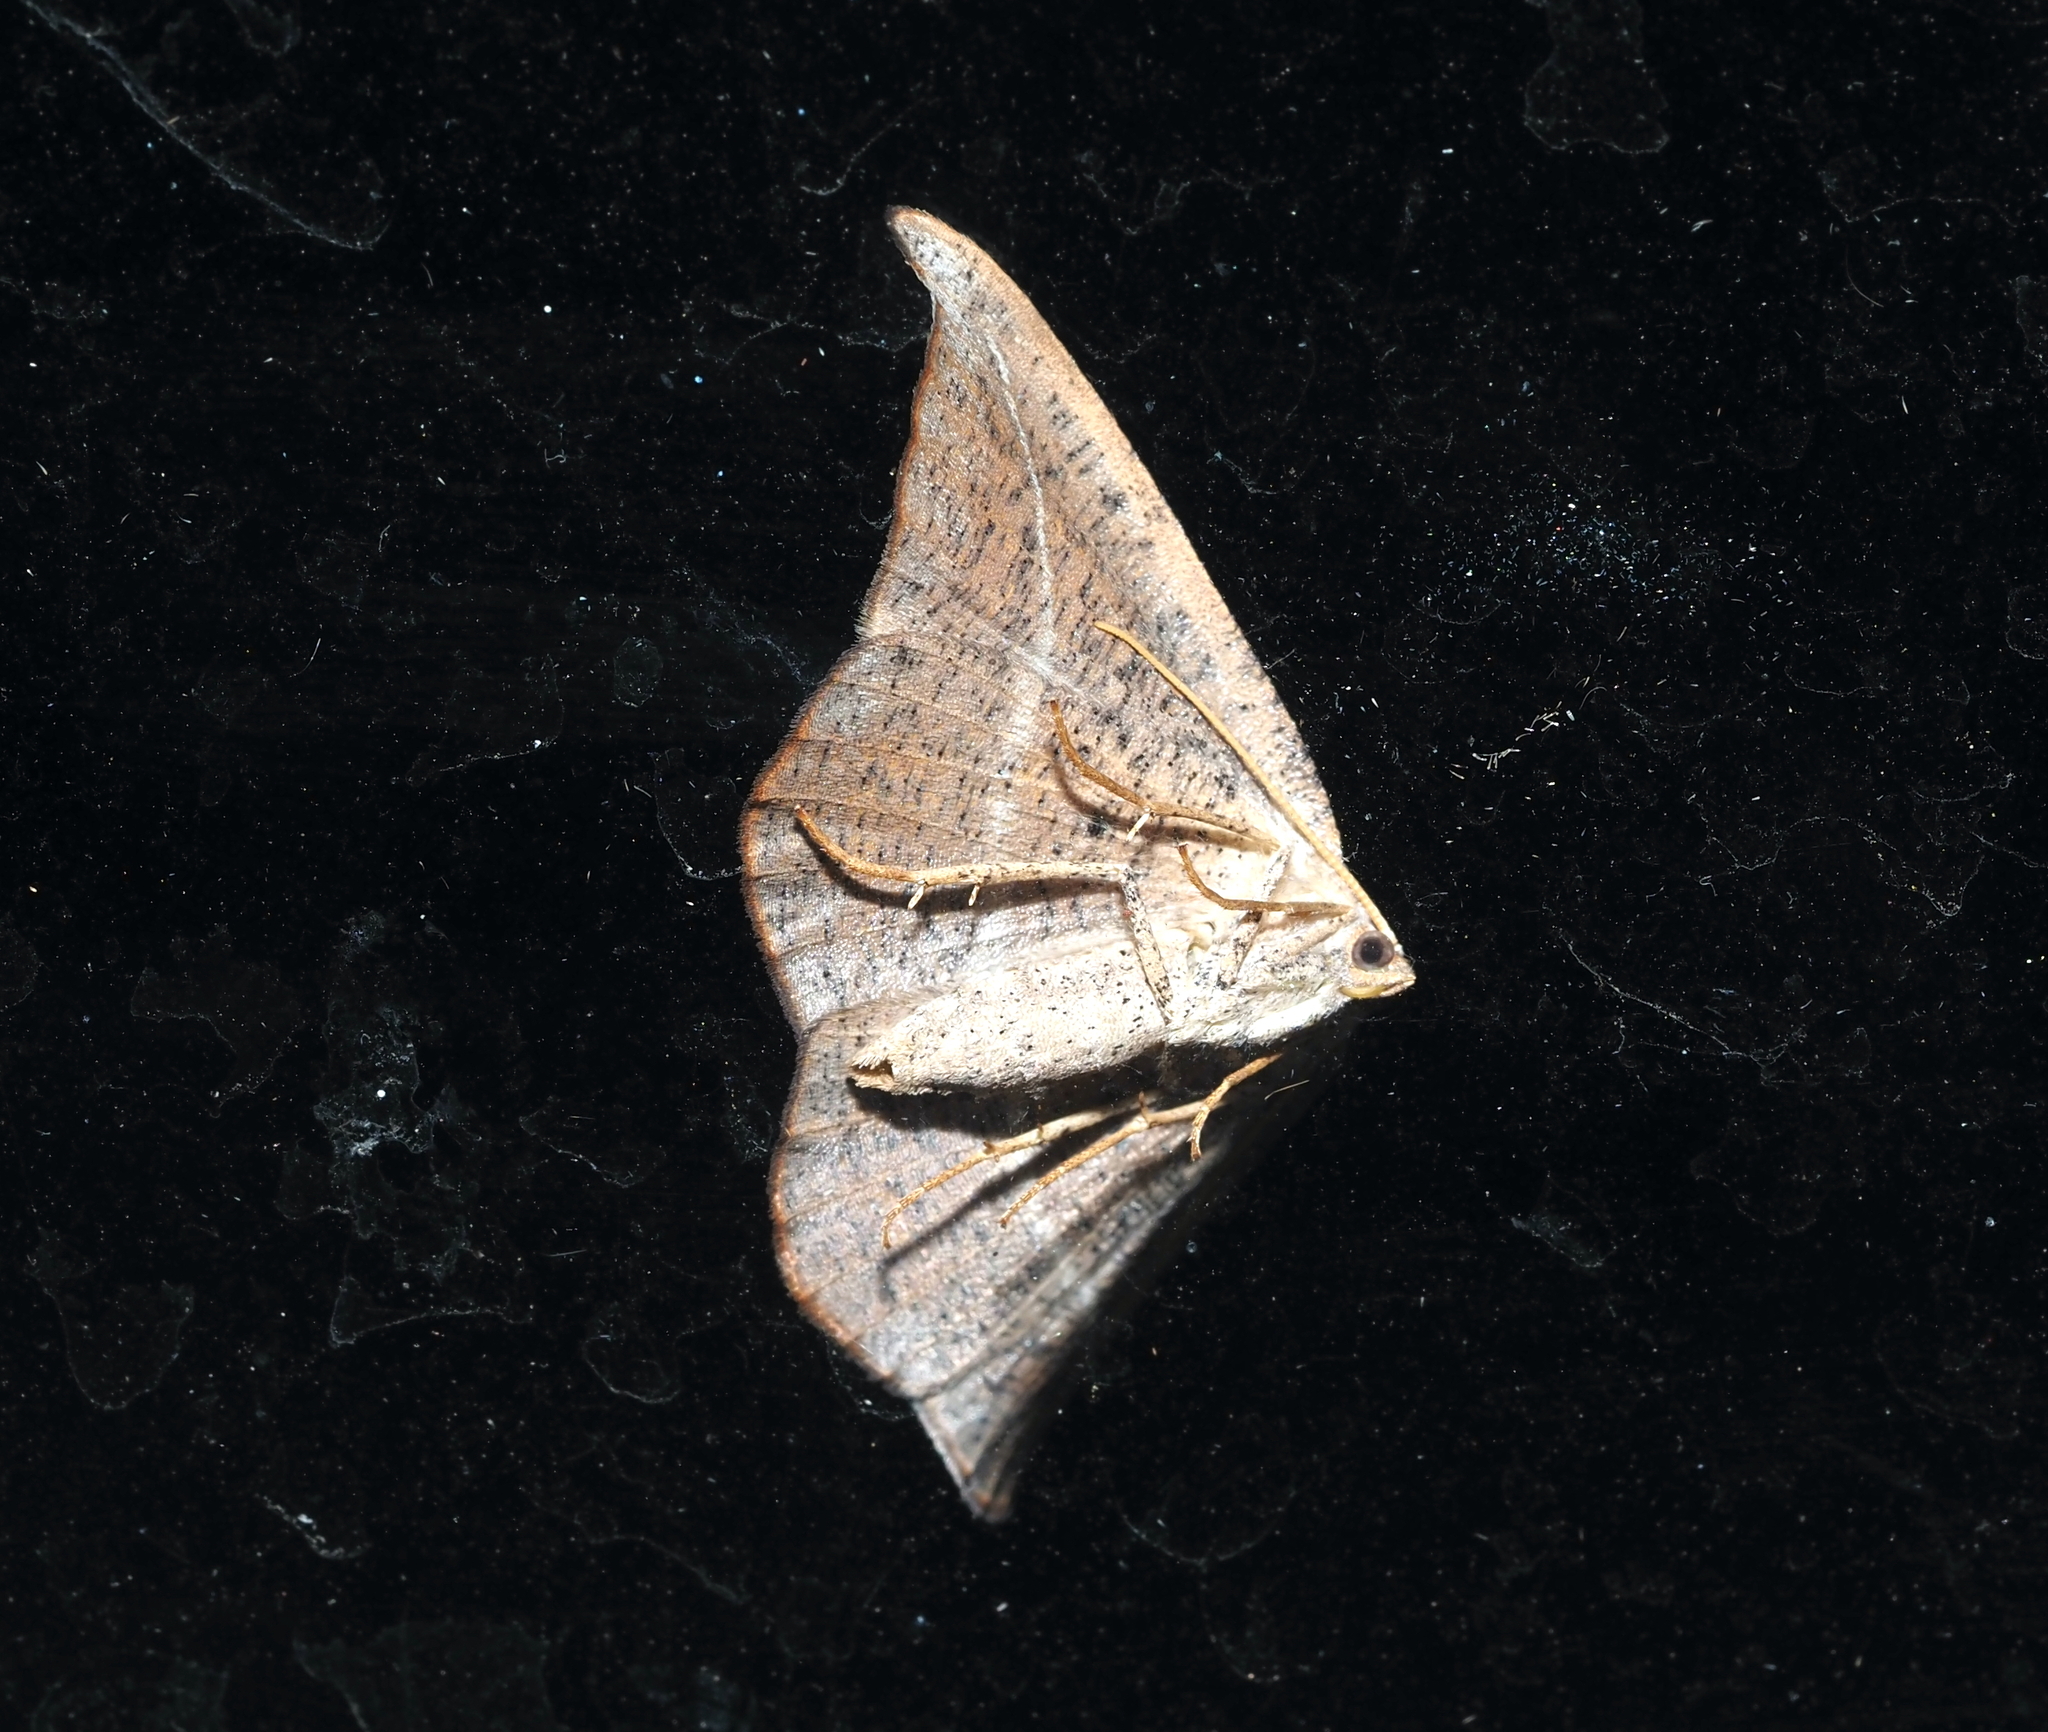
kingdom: Animalia
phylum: Arthropoda
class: Insecta
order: Lepidoptera
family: Geometridae
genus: Patalene
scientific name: Patalene olyzonaria
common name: Juniper geometer moth
